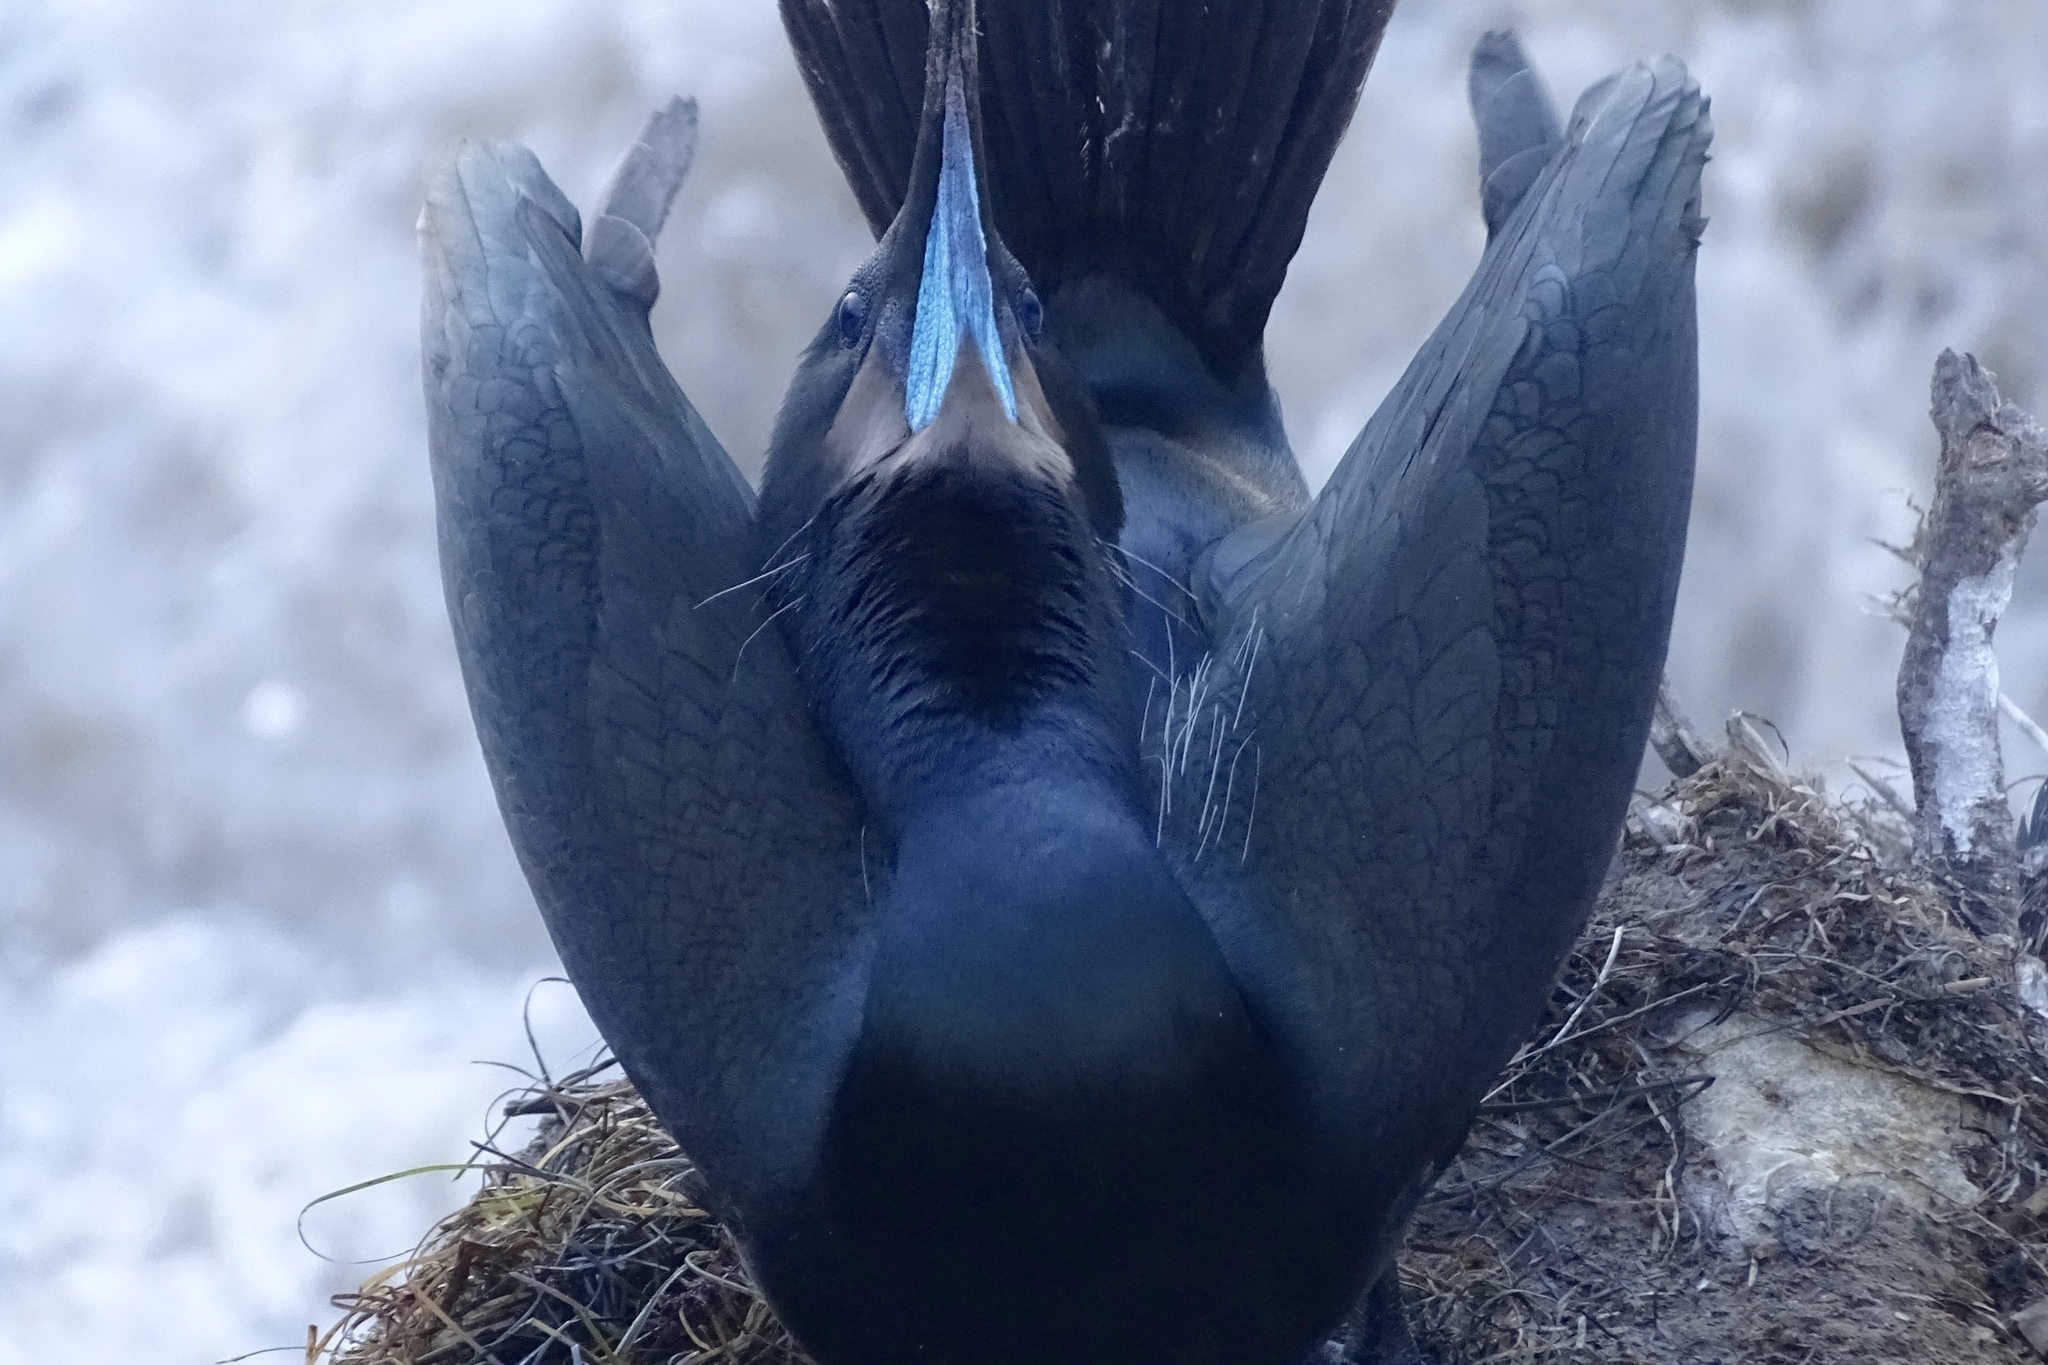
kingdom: Animalia
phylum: Chordata
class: Aves
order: Suliformes
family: Phalacrocoracidae
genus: Urile
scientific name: Urile penicillatus
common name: Brandt's cormorant
